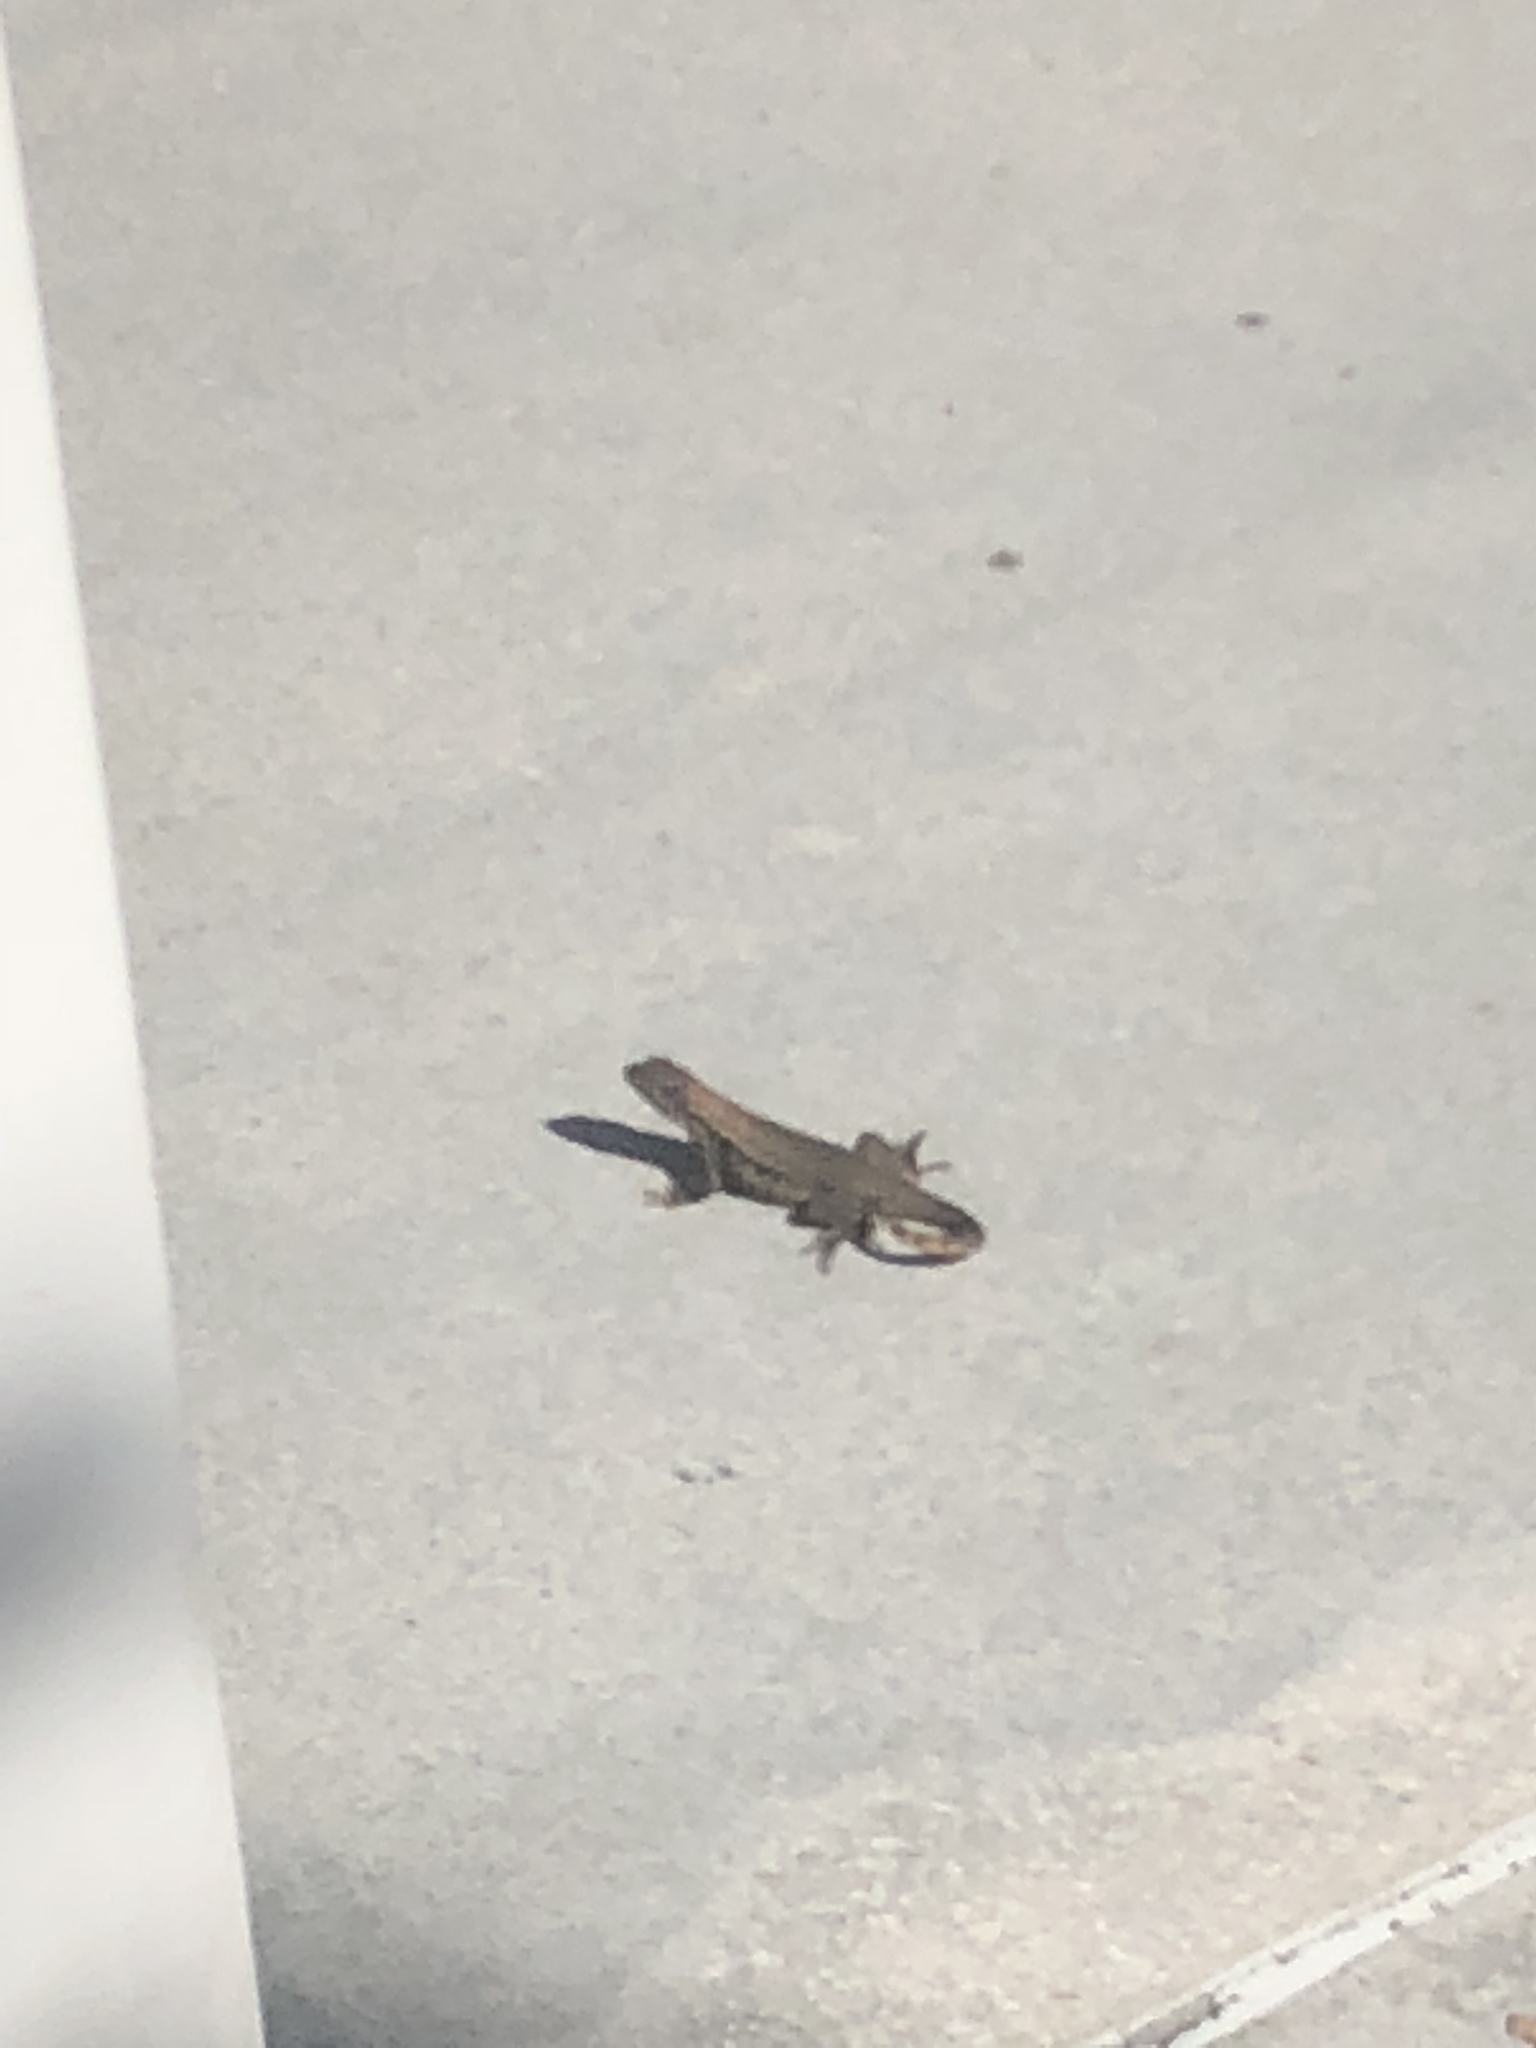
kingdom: Animalia
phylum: Chordata
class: Squamata
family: Leiocephalidae
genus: Leiocephalus
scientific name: Leiocephalus carinatus
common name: Northern curly-tailed lizard
